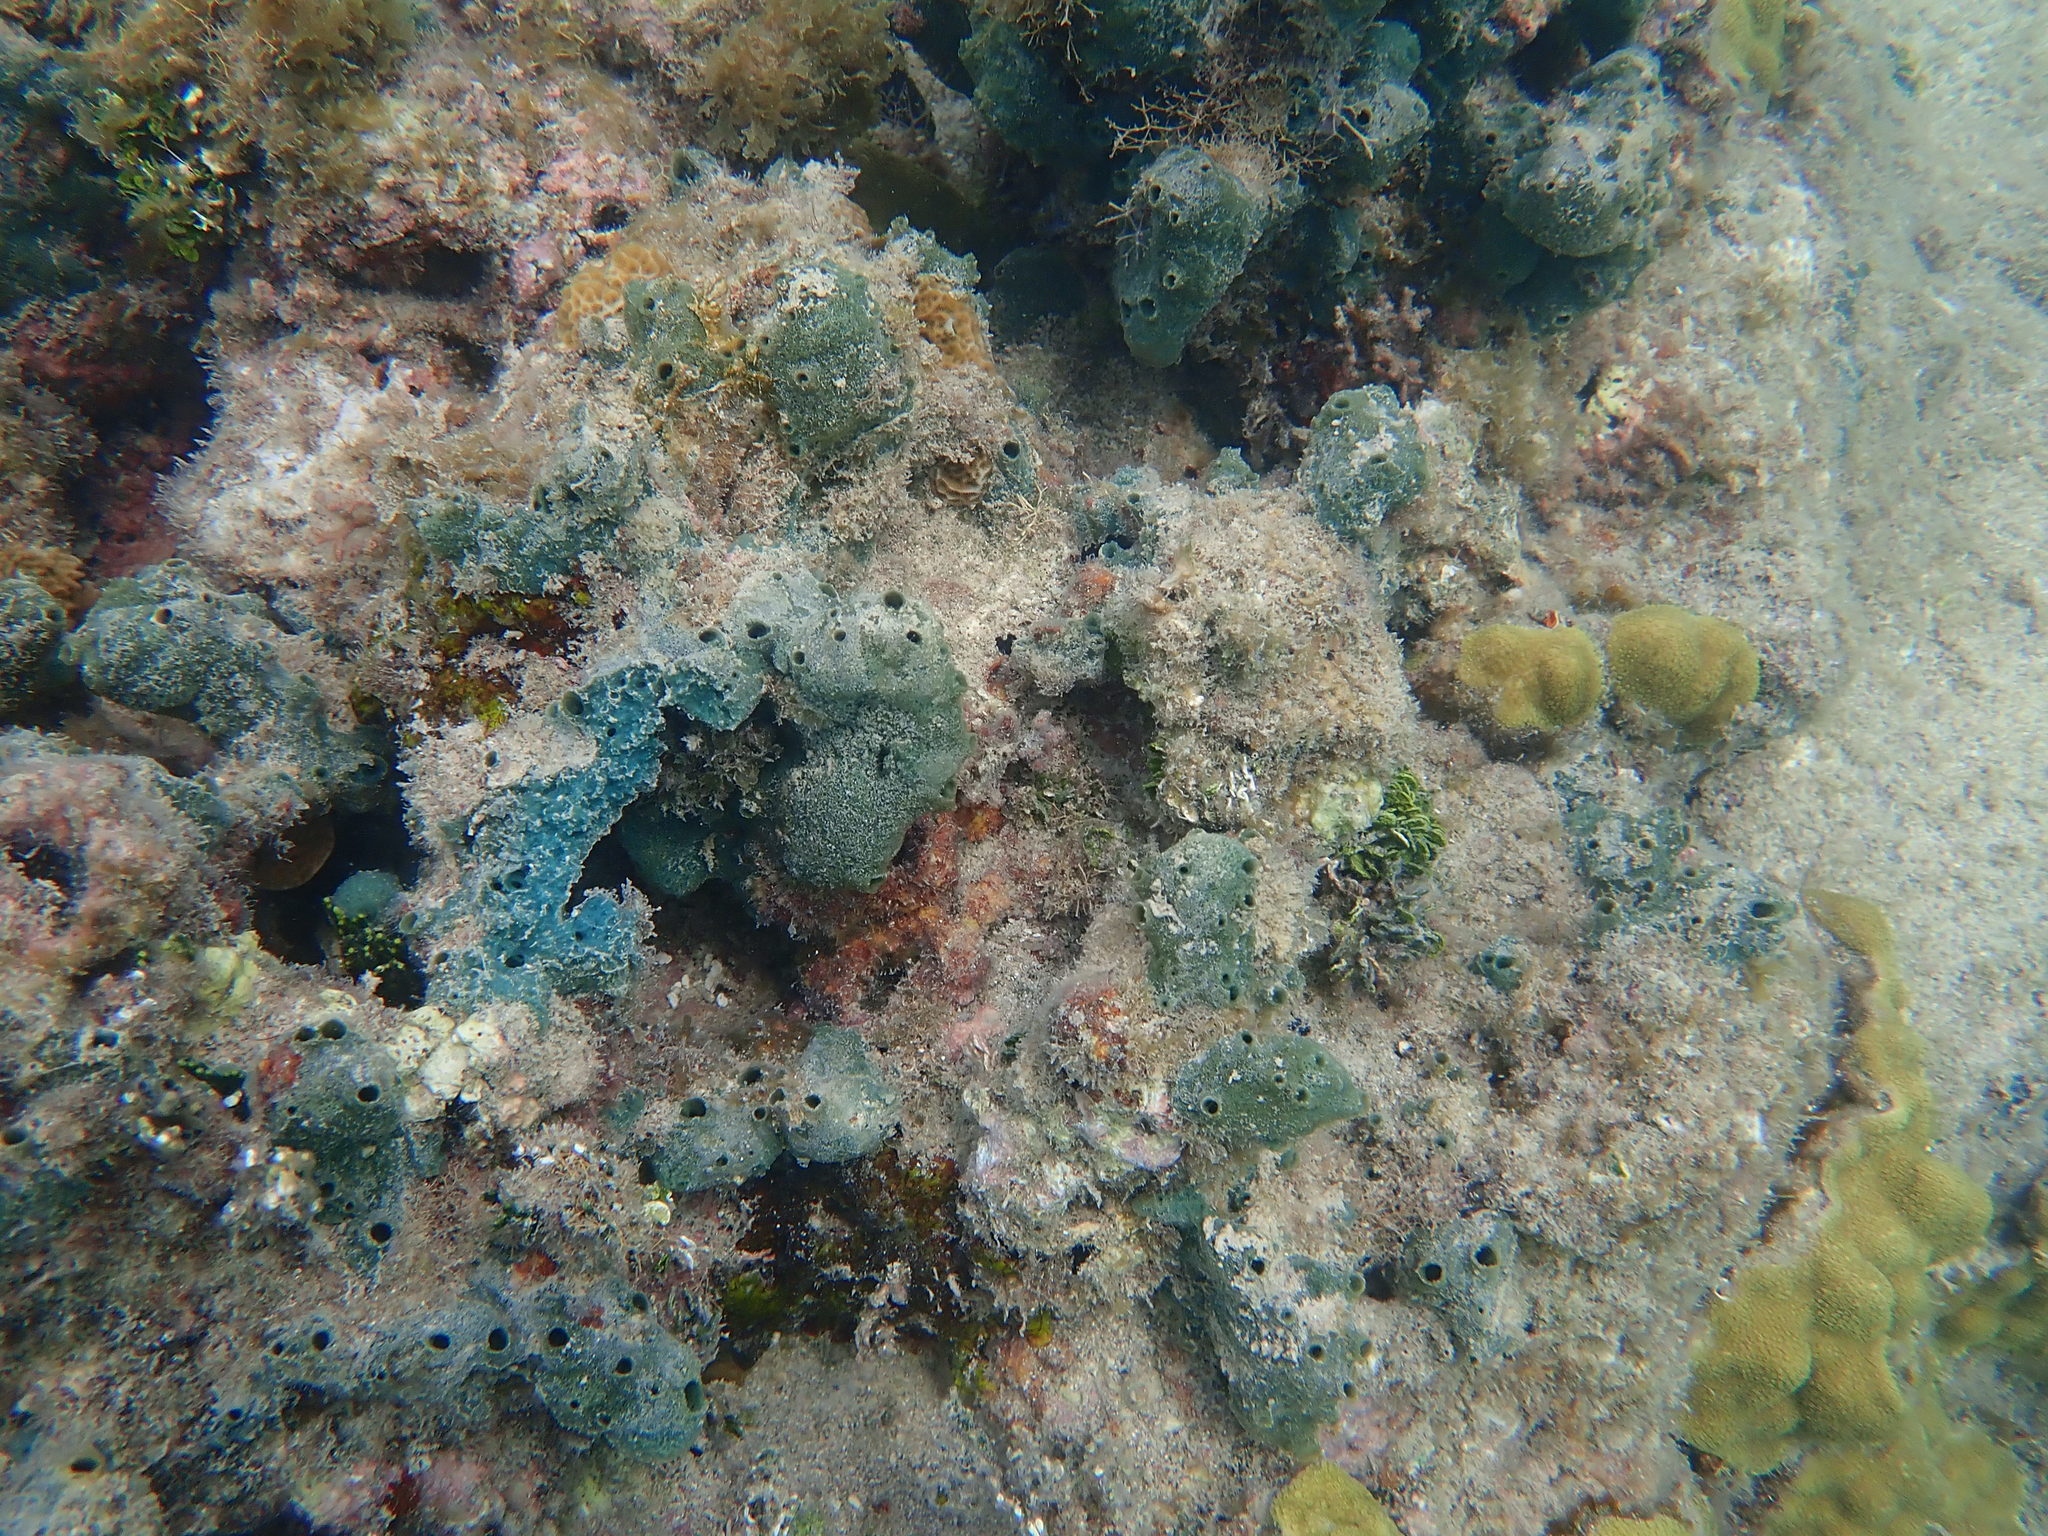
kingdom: Animalia
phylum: Porifera
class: Demospongiae
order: Haplosclerida
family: Niphatidae
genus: Amphimedon
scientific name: Amphimedon viridis
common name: Green sponge
